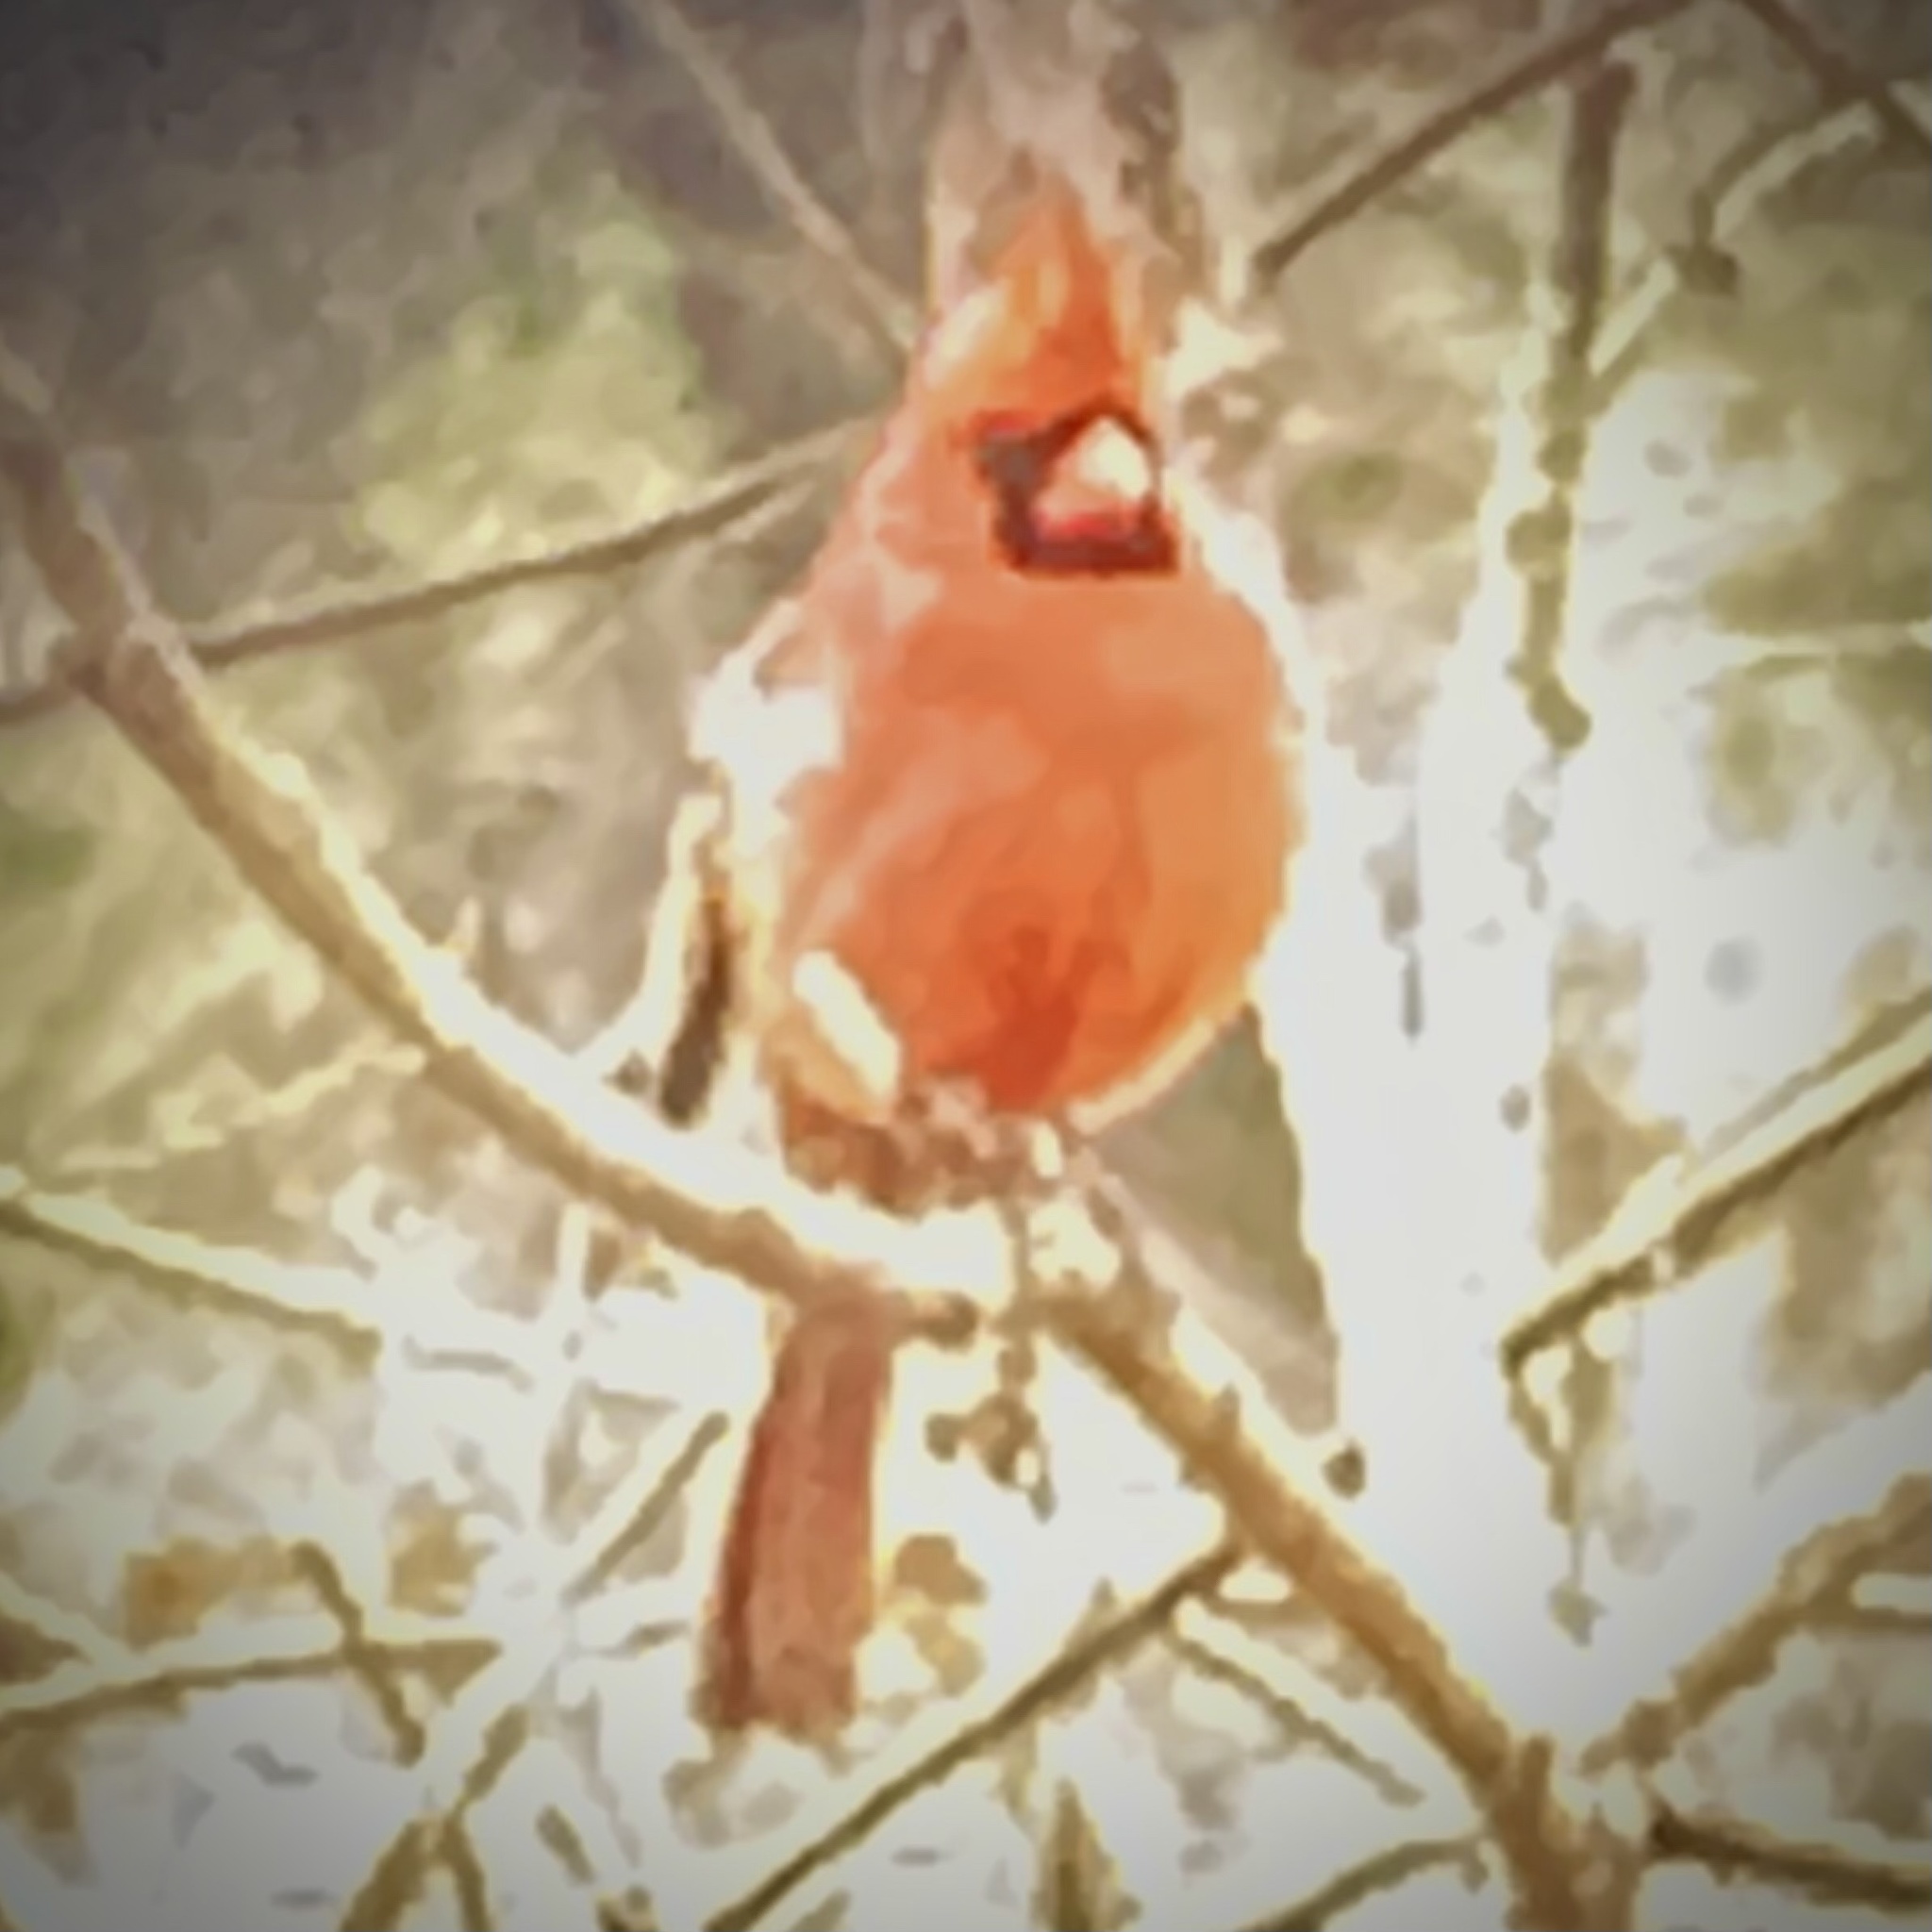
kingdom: Animalia
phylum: Chordata
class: Aves
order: Passeriformes
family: Cardinalidae
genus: Cardinalis
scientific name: Cardinalis cardinalis
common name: Northern cardinal
